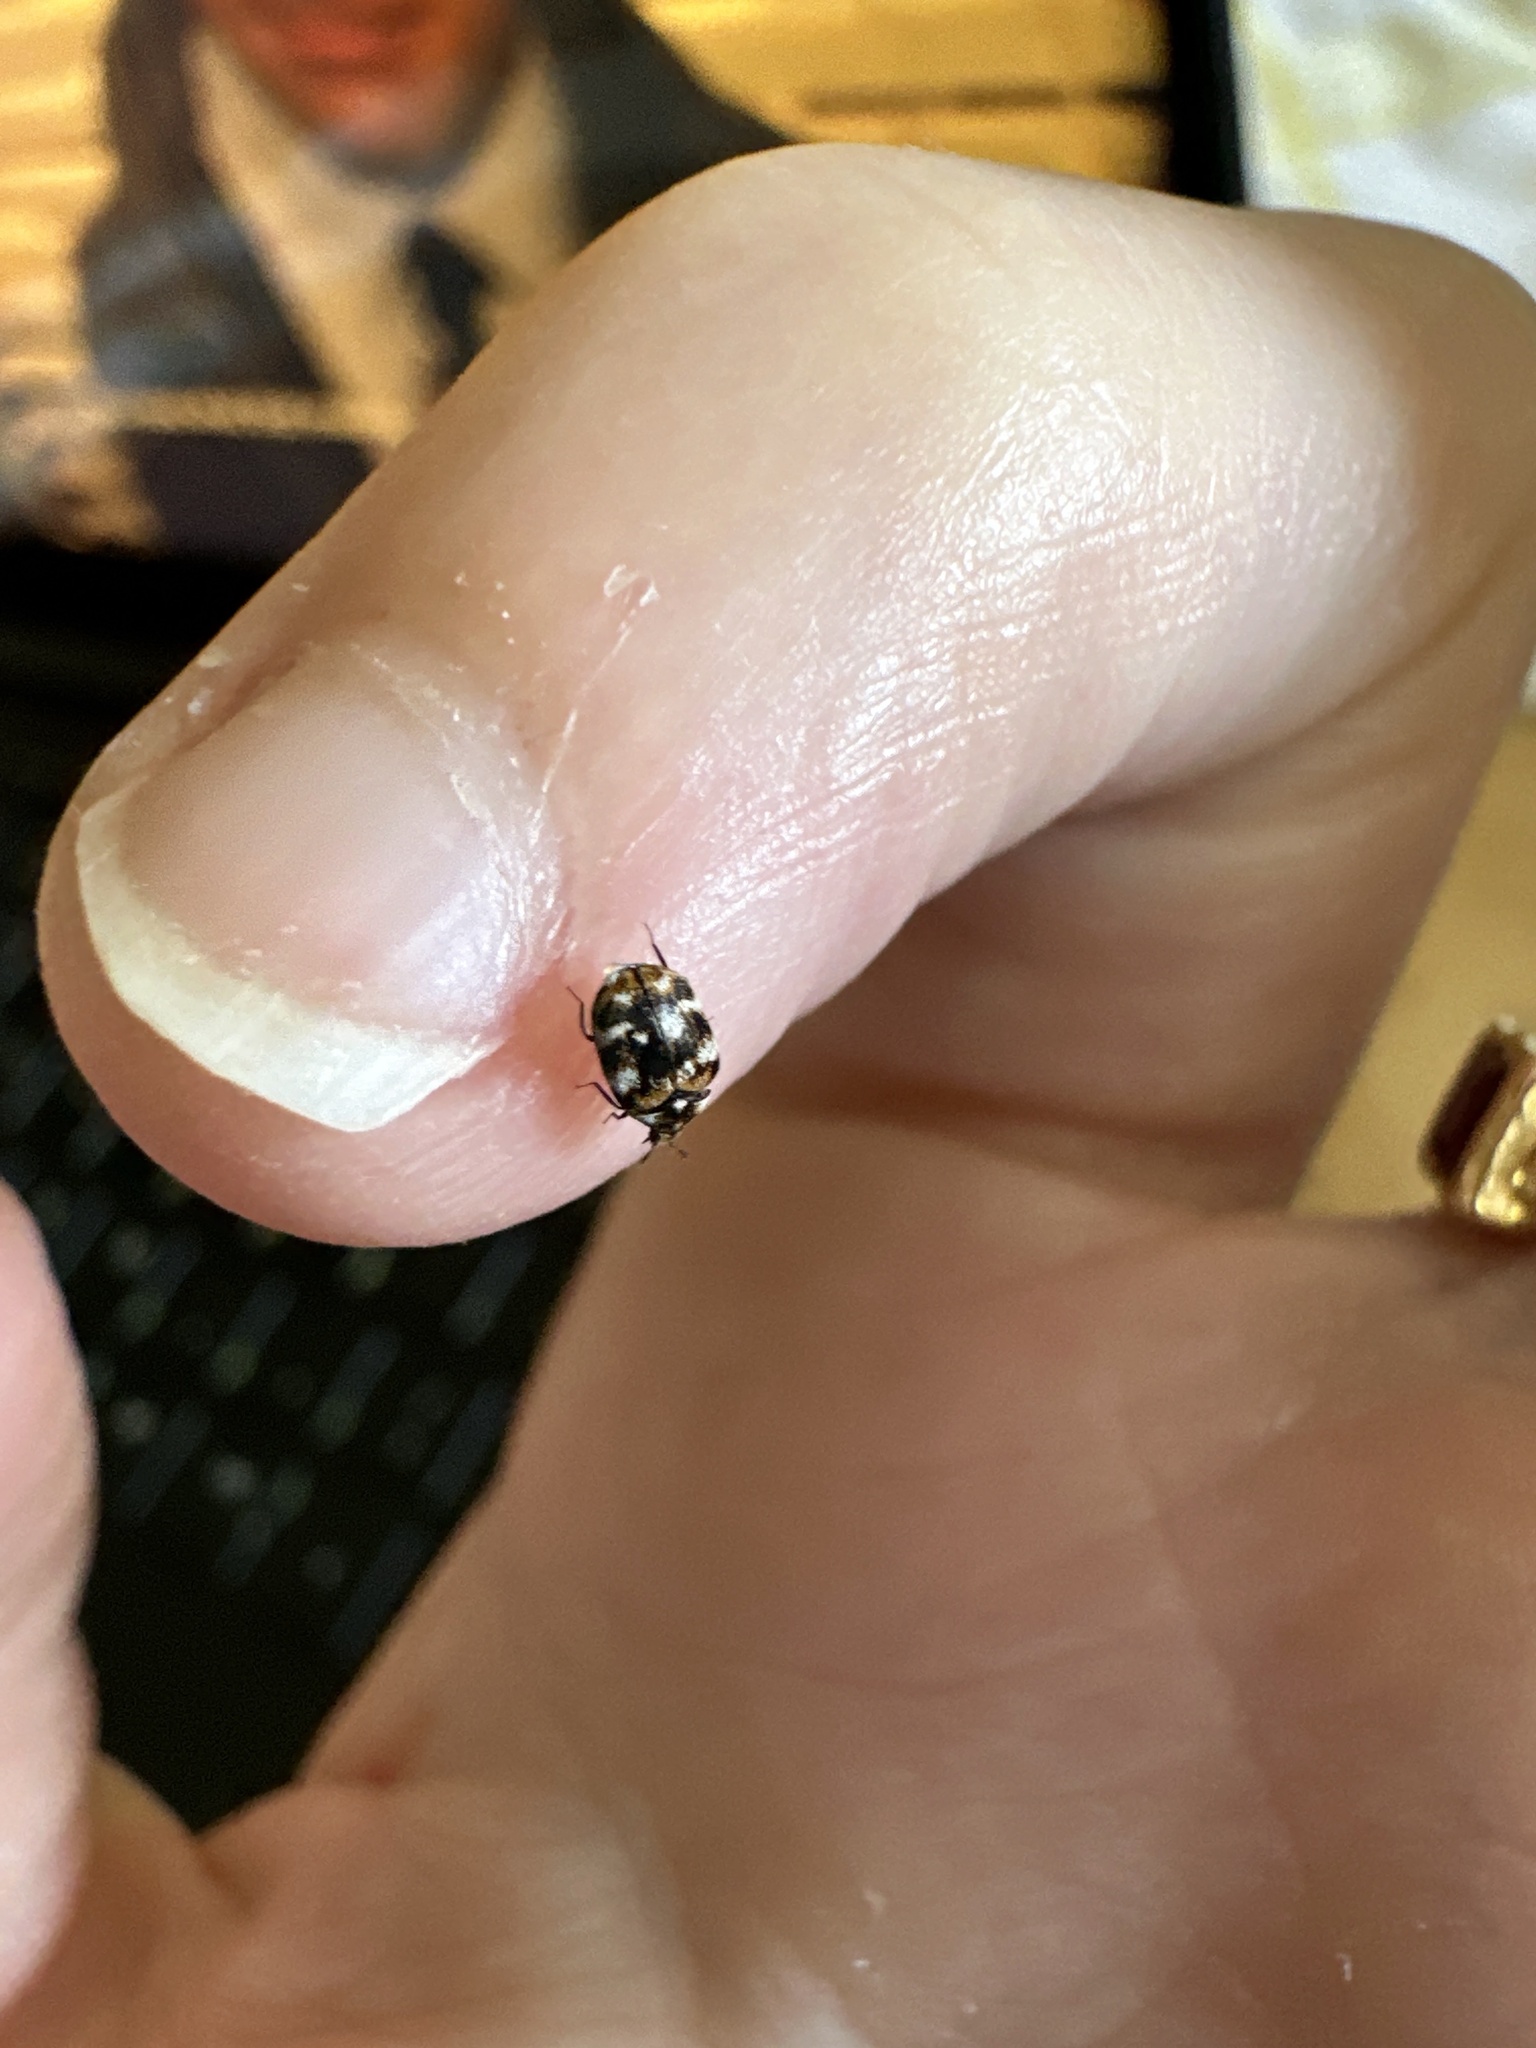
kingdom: Animalia
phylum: Arthropoda
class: Insecta
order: Coleoptera
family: Dermestidae
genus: Anthrenus
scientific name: Anthrenus verbasci
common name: Varied carpet beetle
